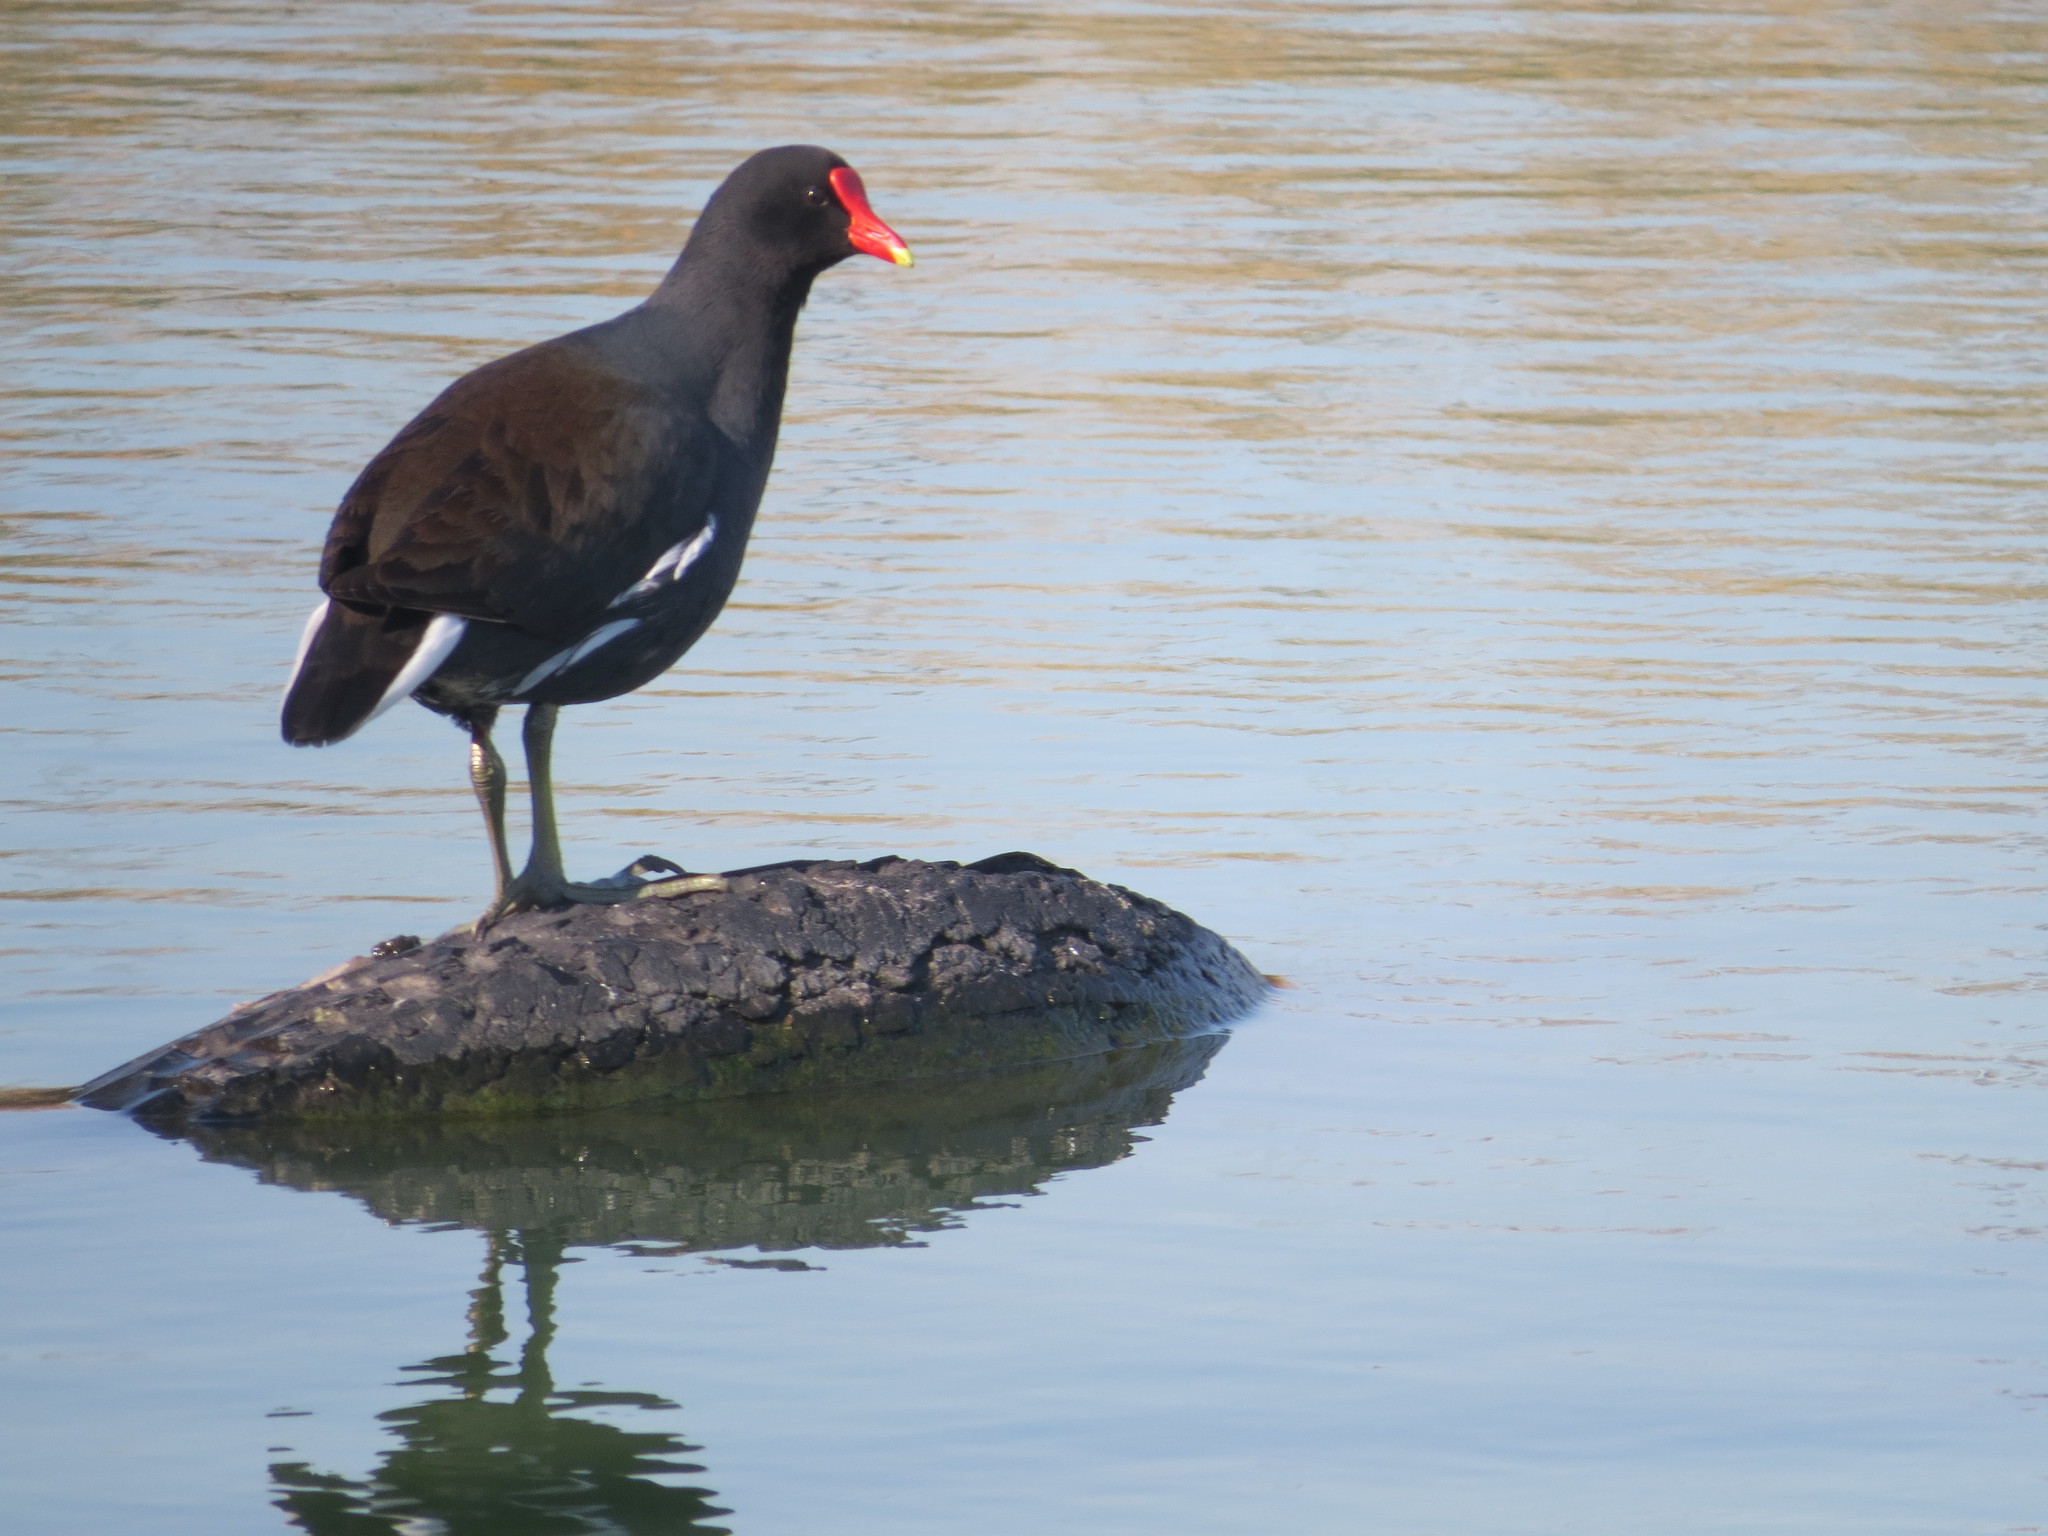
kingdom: Animalia
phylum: Chordata
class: Aves
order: Gruiformes
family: Rallidae
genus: Gallinula
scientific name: Gallinula chloropus
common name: Common moorhen
